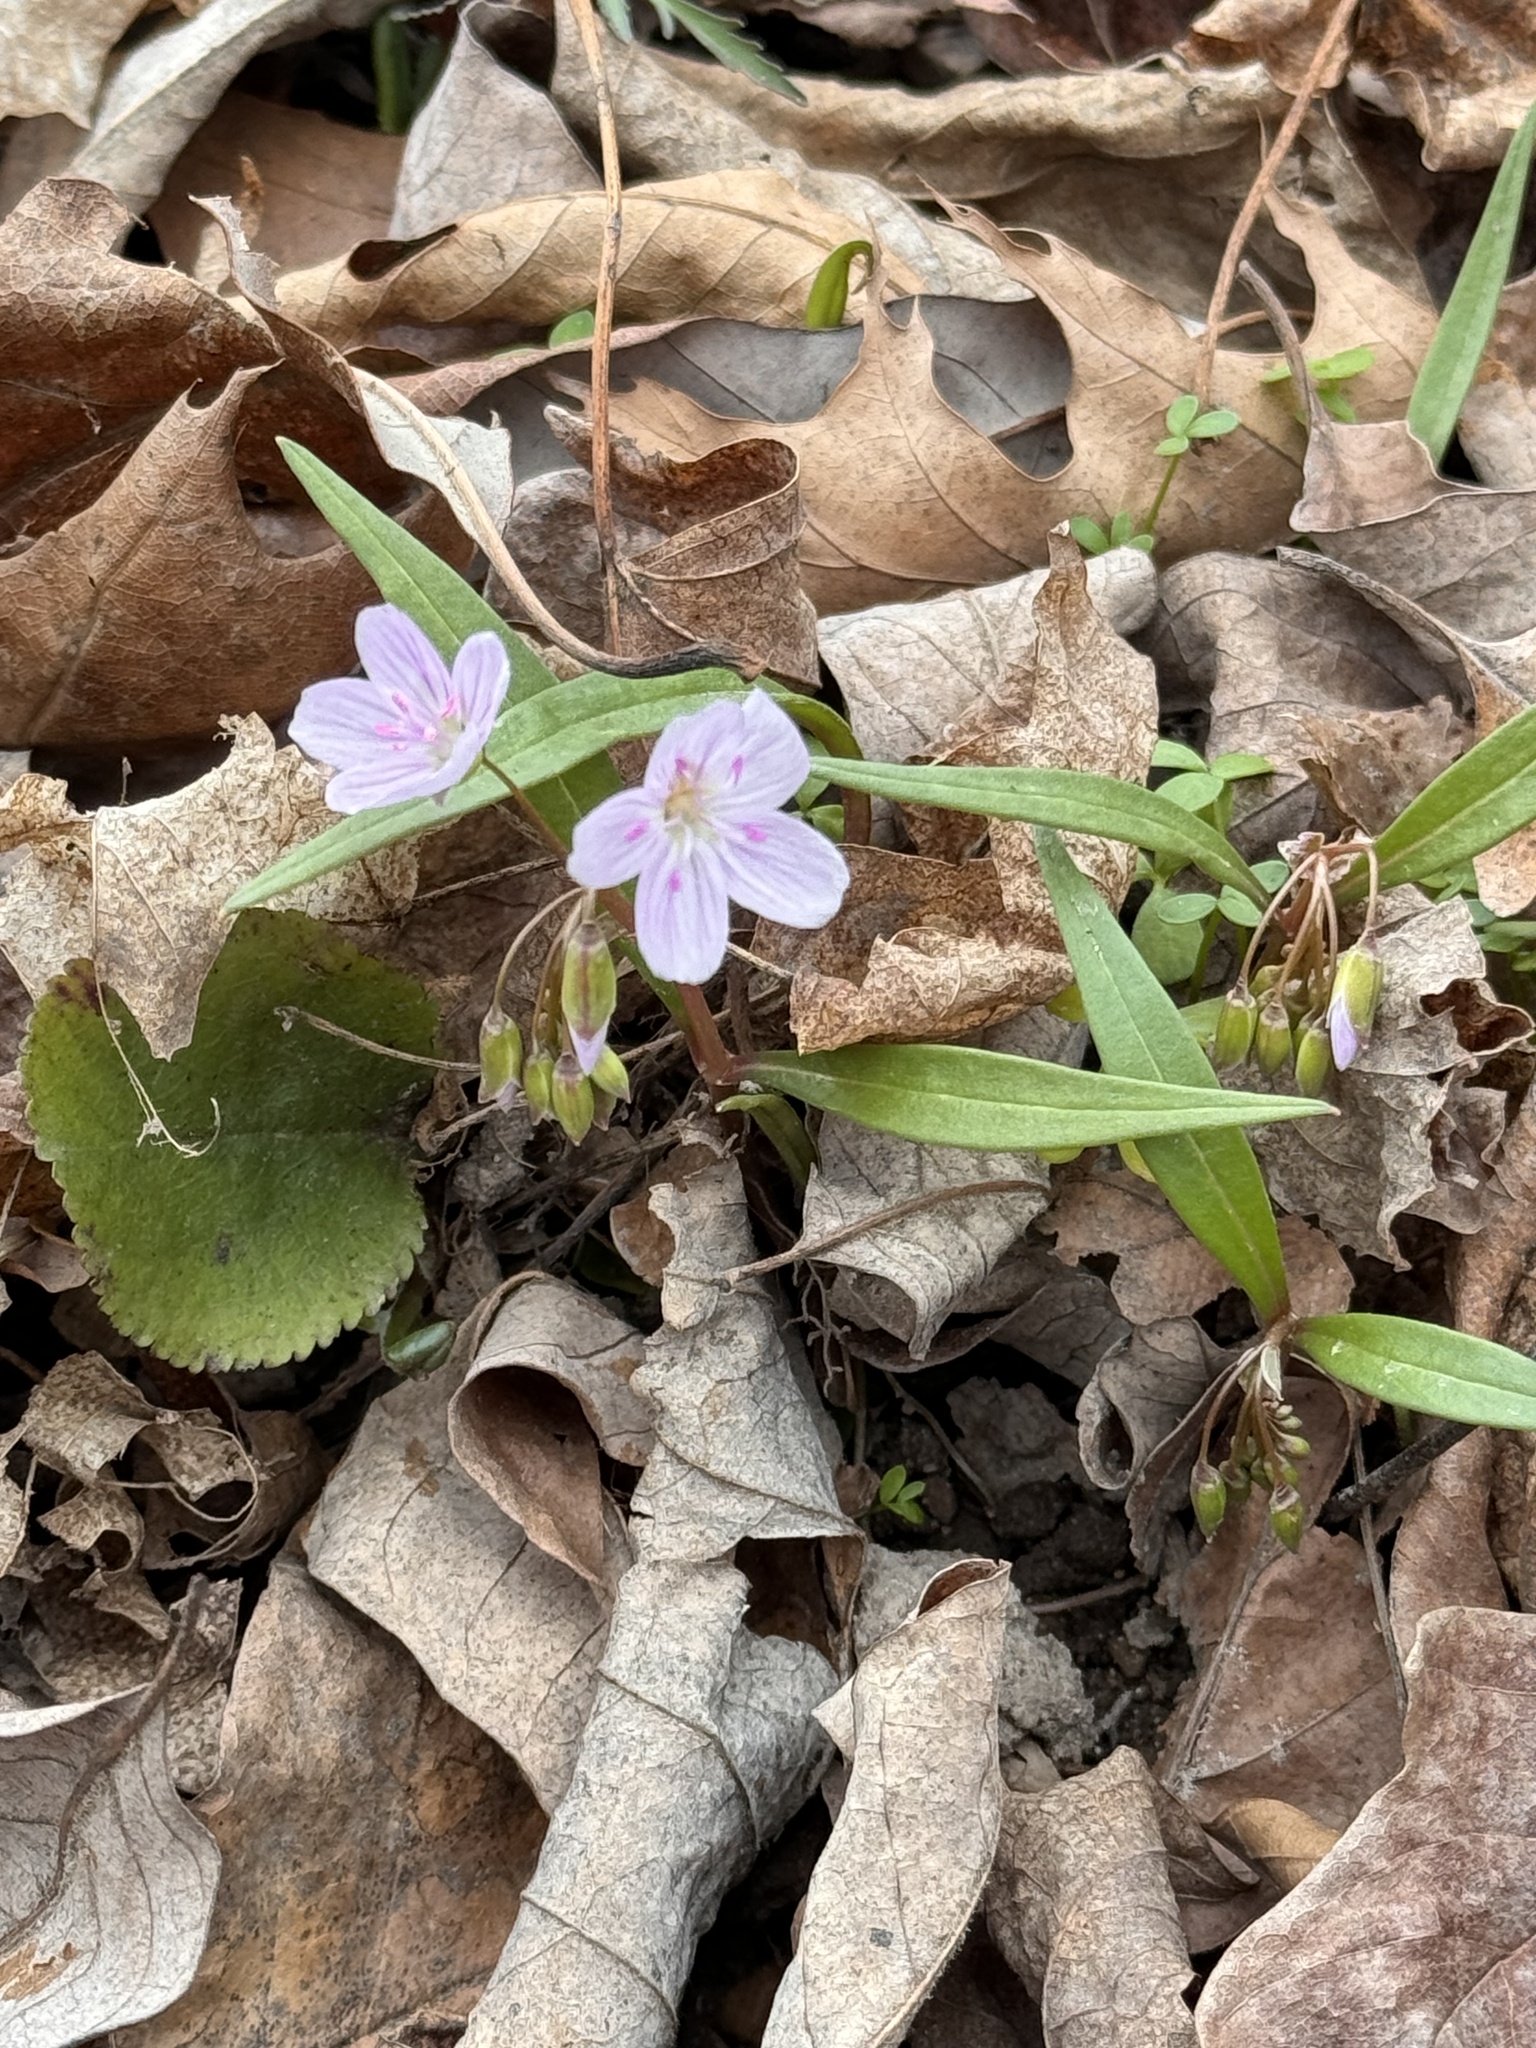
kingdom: Plantae
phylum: Tracheophyta
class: Magnoliopsida
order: Caryophyllales
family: Montiaceae
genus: Claytonia
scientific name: Claytonia virginica
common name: Virginia springbeauty
